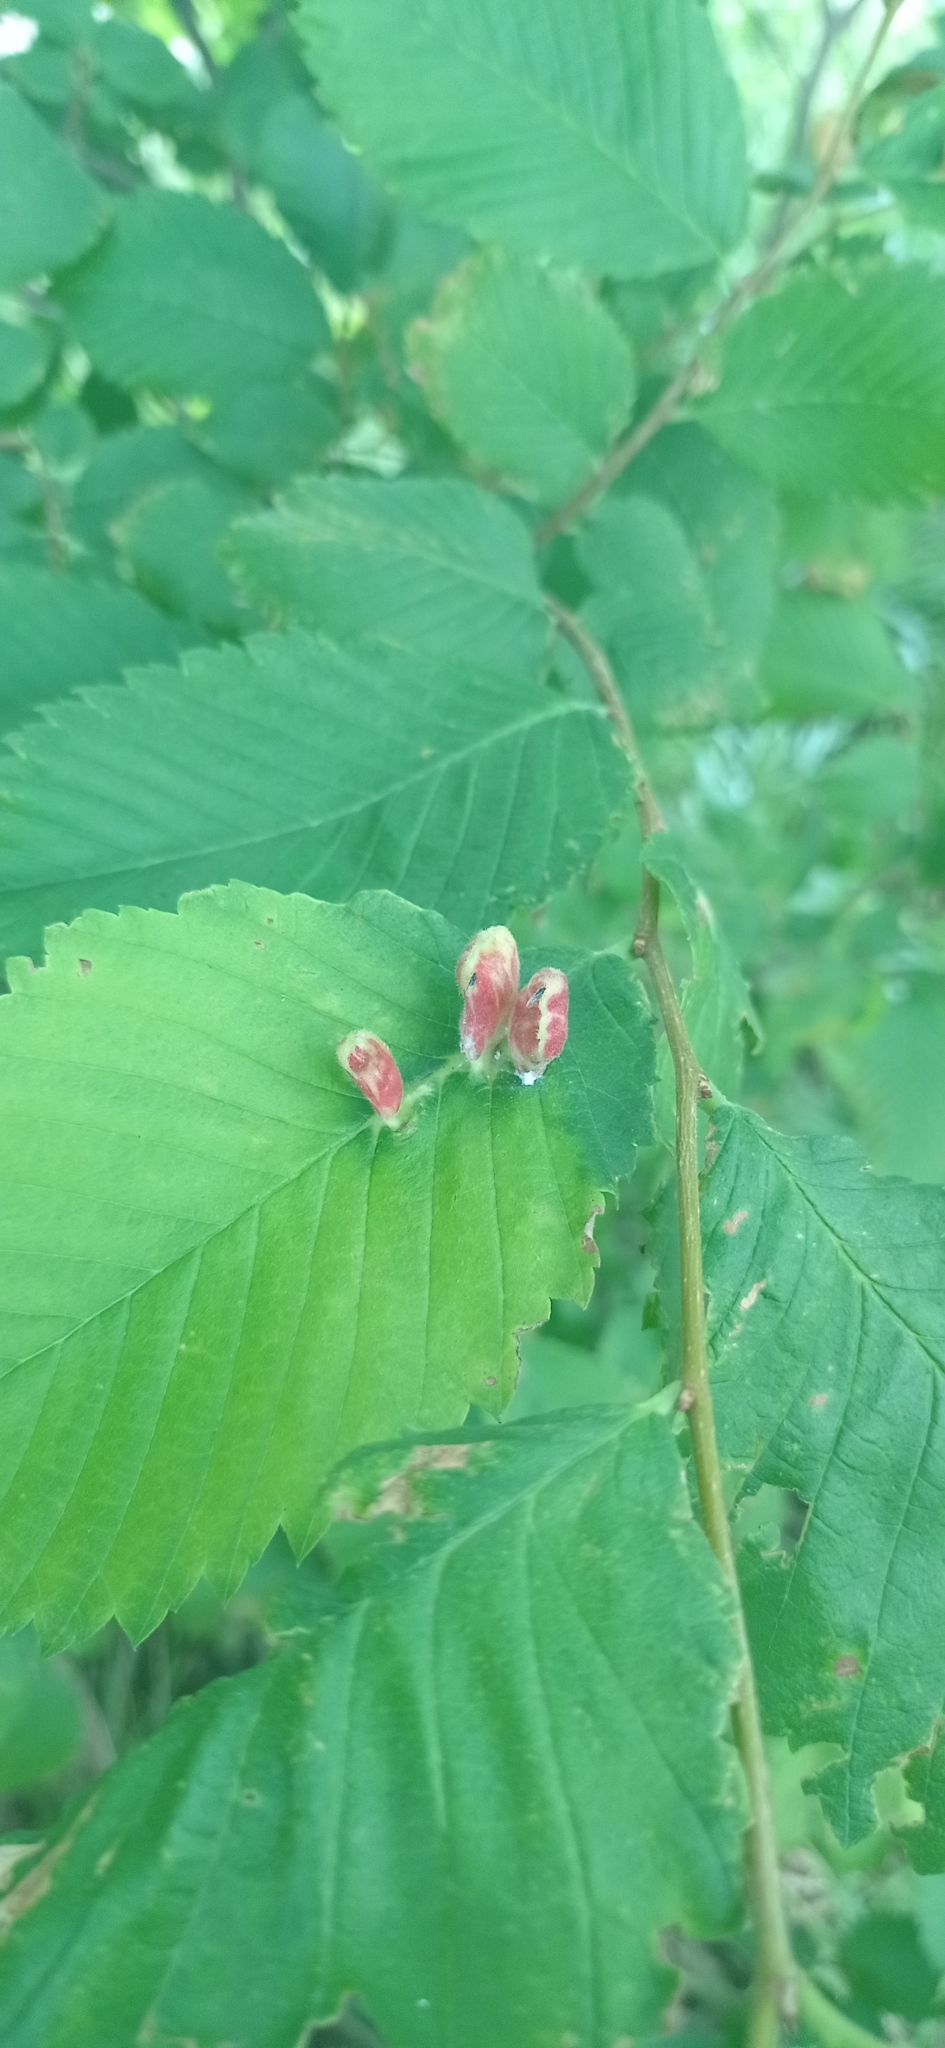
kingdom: Animalia
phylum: Arthropoda
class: Insecta
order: Hemiptera
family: Aphididae
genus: Colopha
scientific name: Colopha compressa
